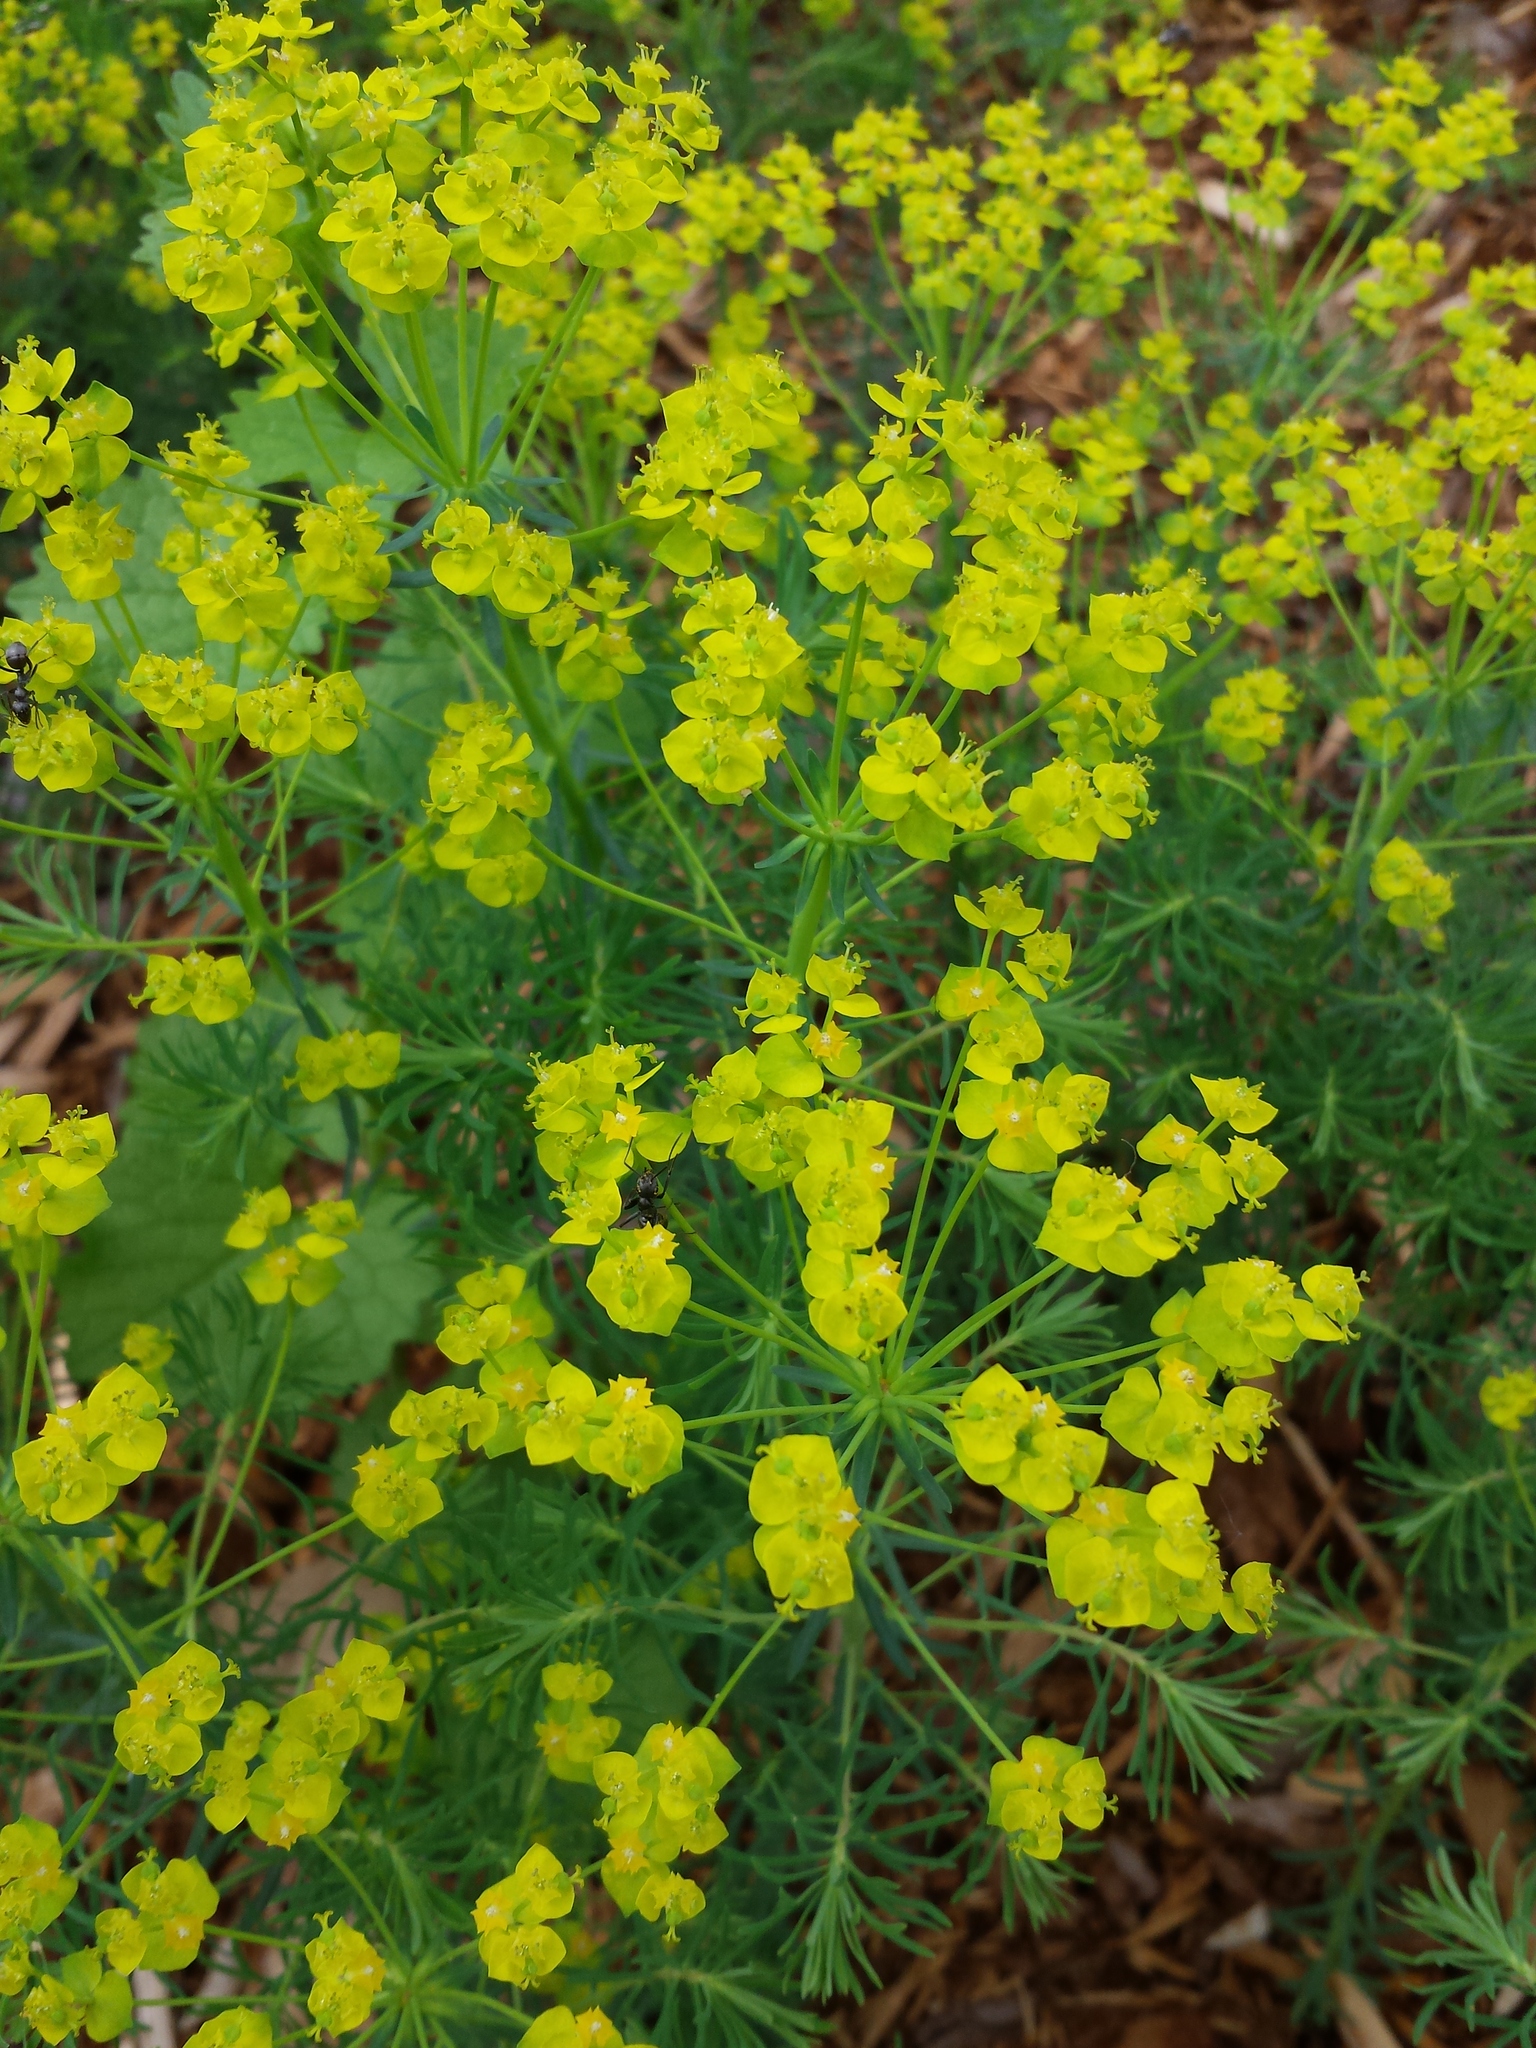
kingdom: Plantae
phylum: Tracheophyta
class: Magnoliopsida
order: Malpighiales
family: Euphorbiaceae
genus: Euphorbia
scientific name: Euphorbia cyparissias
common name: Cypress spurge
